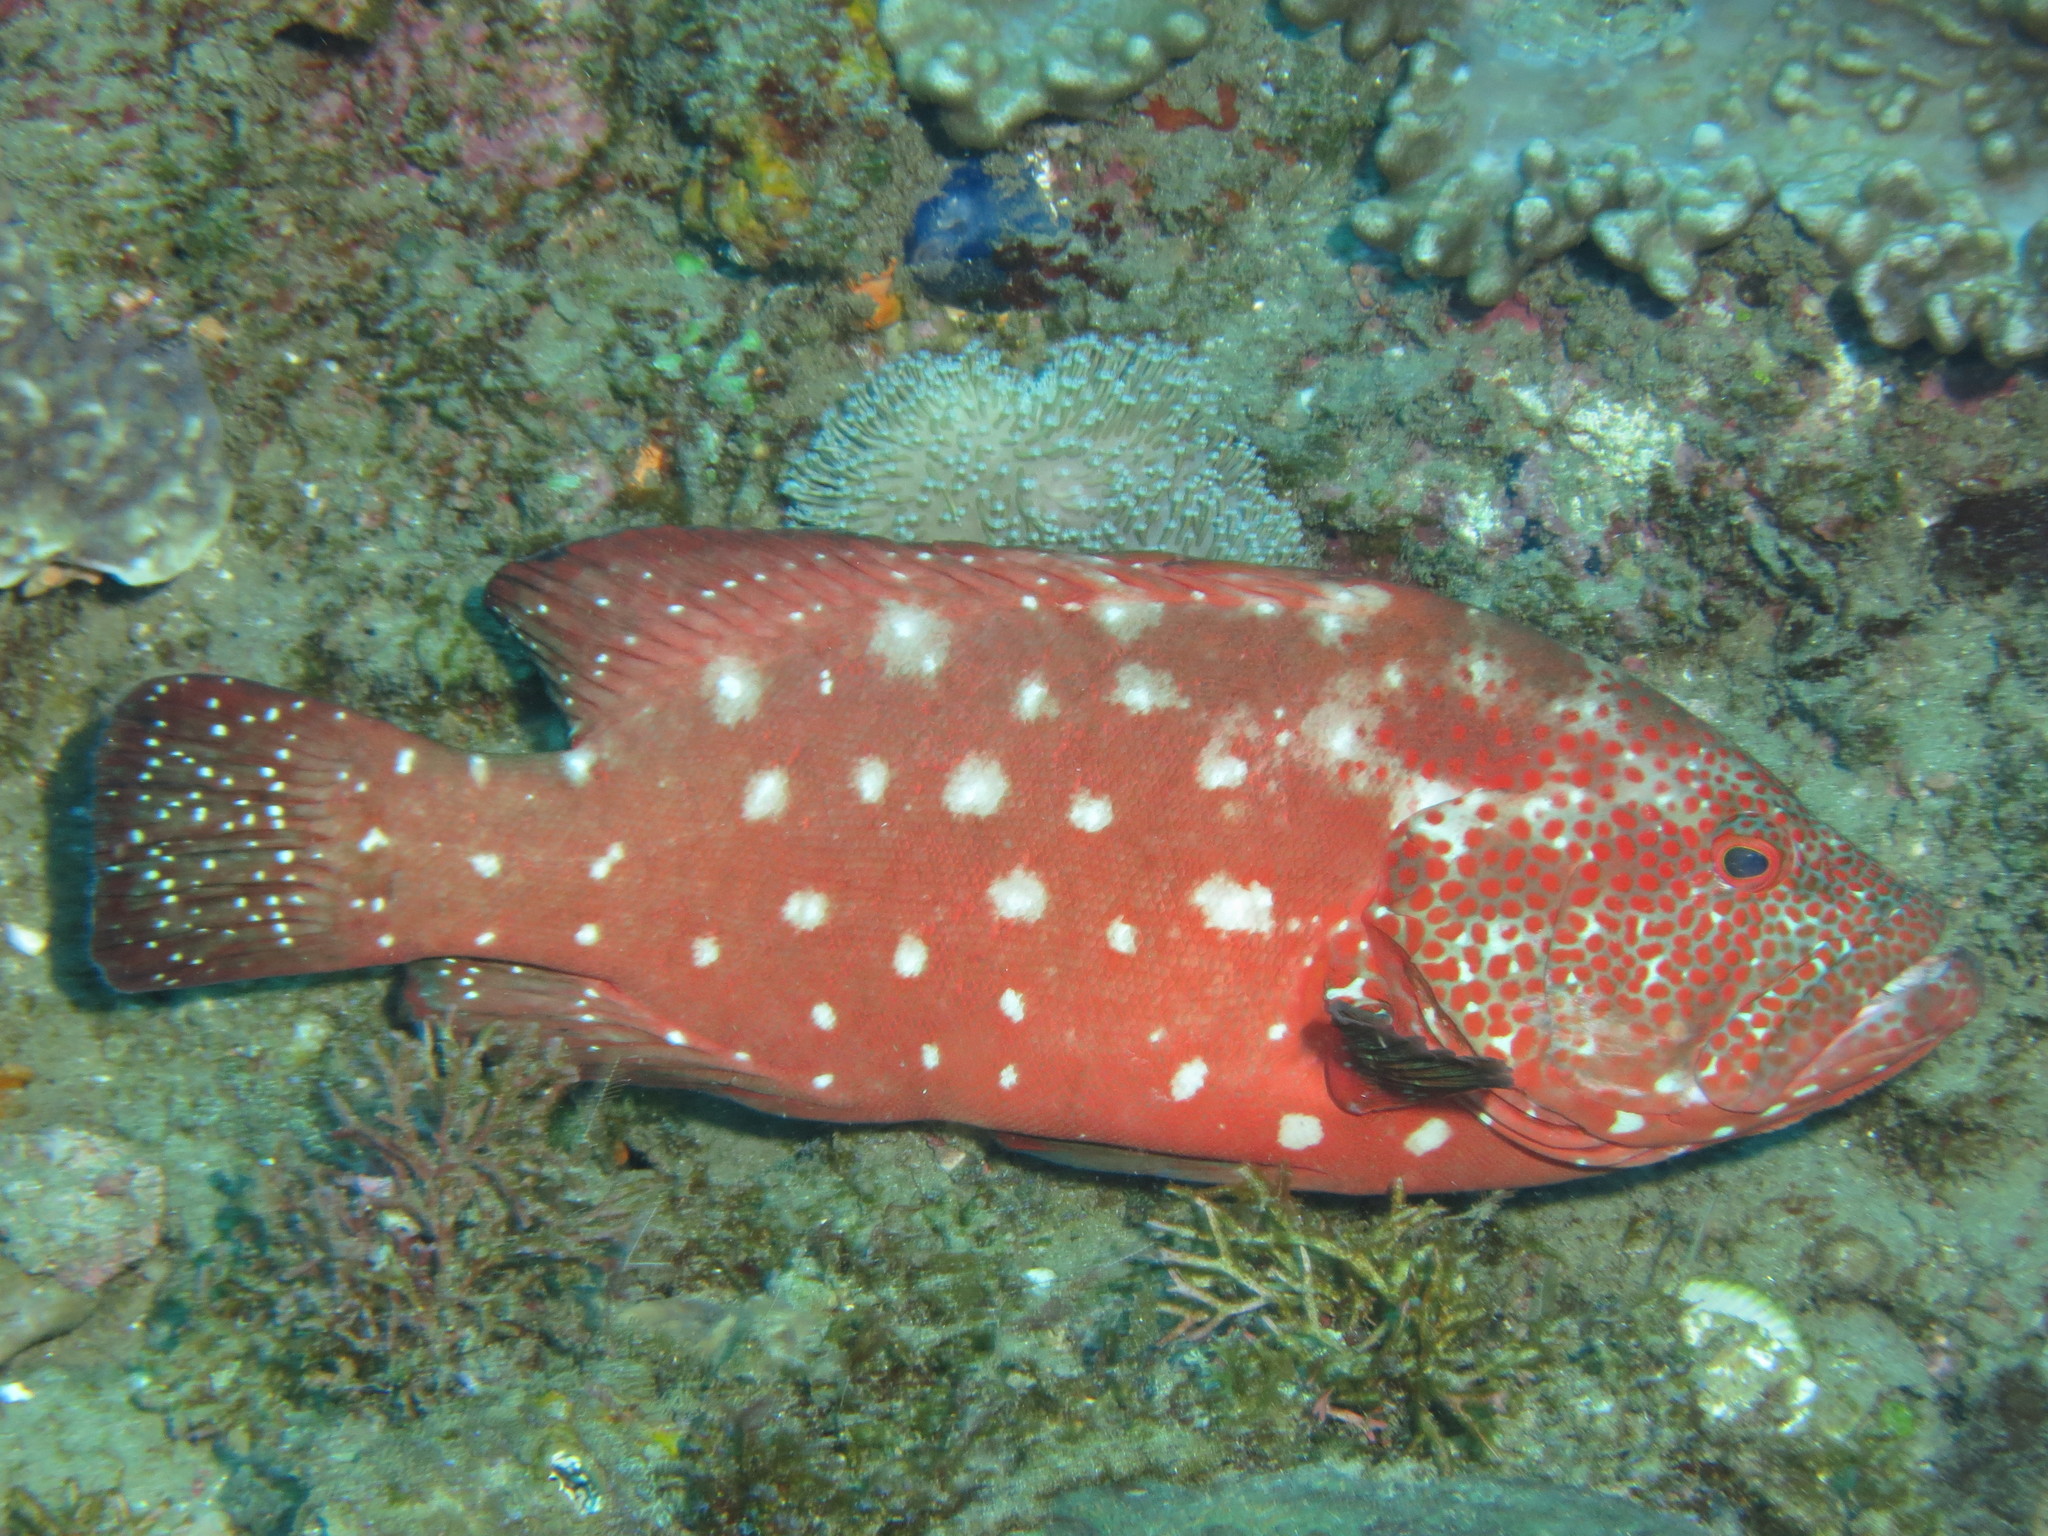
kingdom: Animalia
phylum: Chordata
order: Perciformes
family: Serranidae
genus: Cephalopholis
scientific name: Cephalopholis sonnerati
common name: Tomato hind
